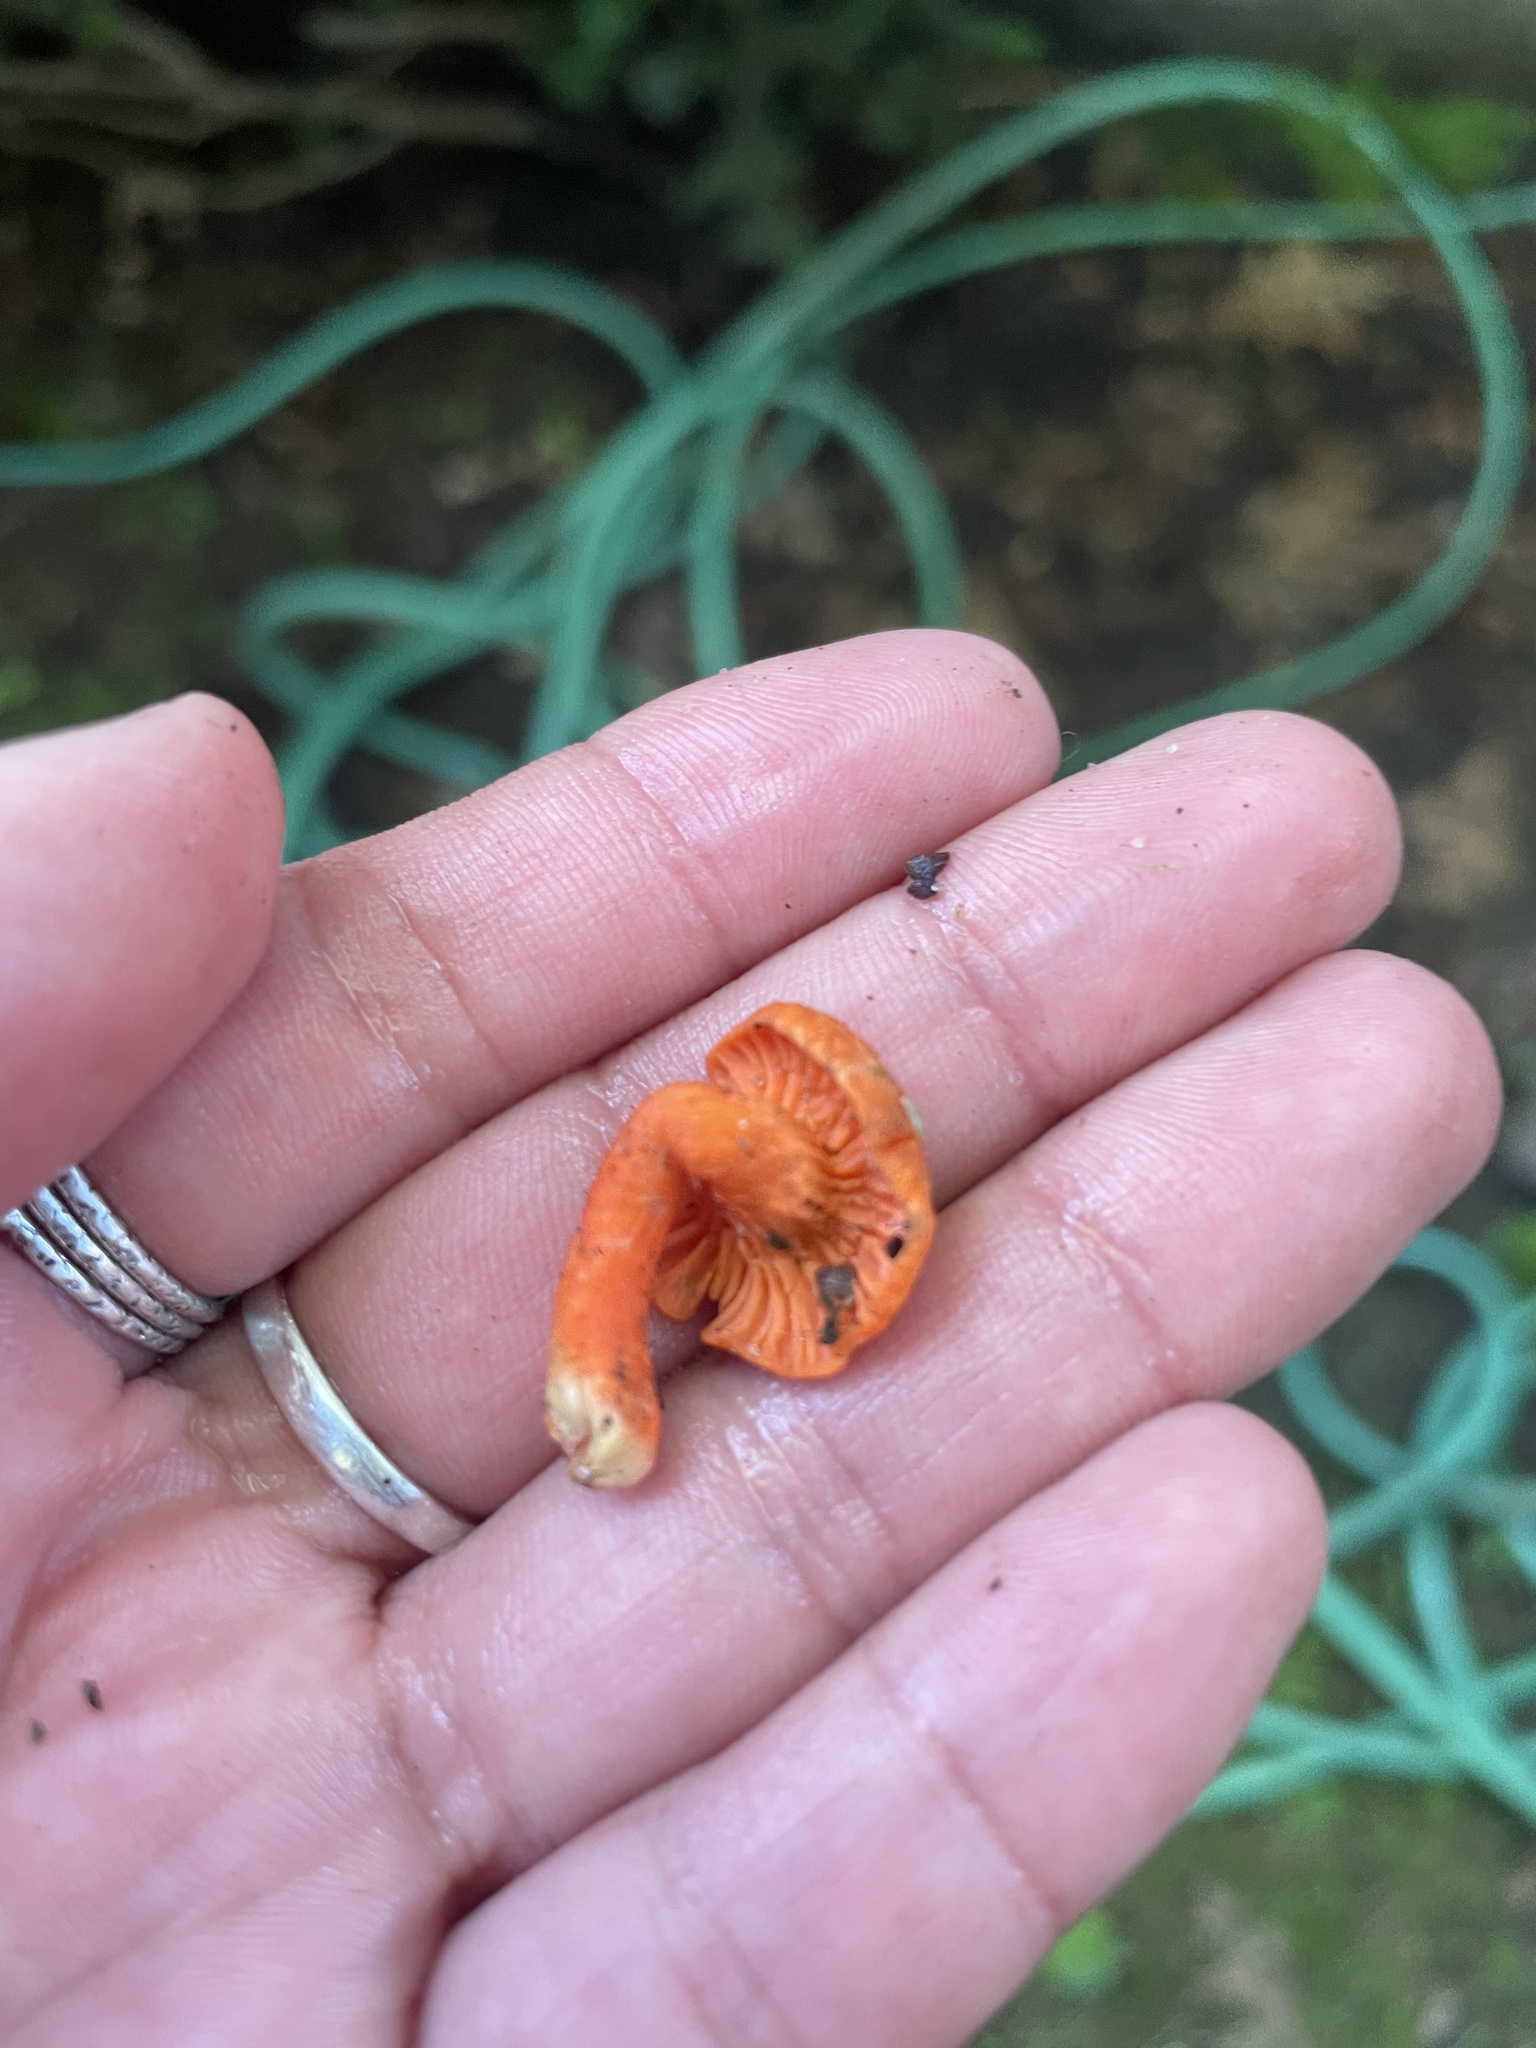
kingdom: Fungi
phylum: Basidiomycota
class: Agaricomycetes
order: Cantharellales
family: Hydnaceae
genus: Cantharellus
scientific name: Cantharellus cinnabarinus
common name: Cinnabar chanterelle
